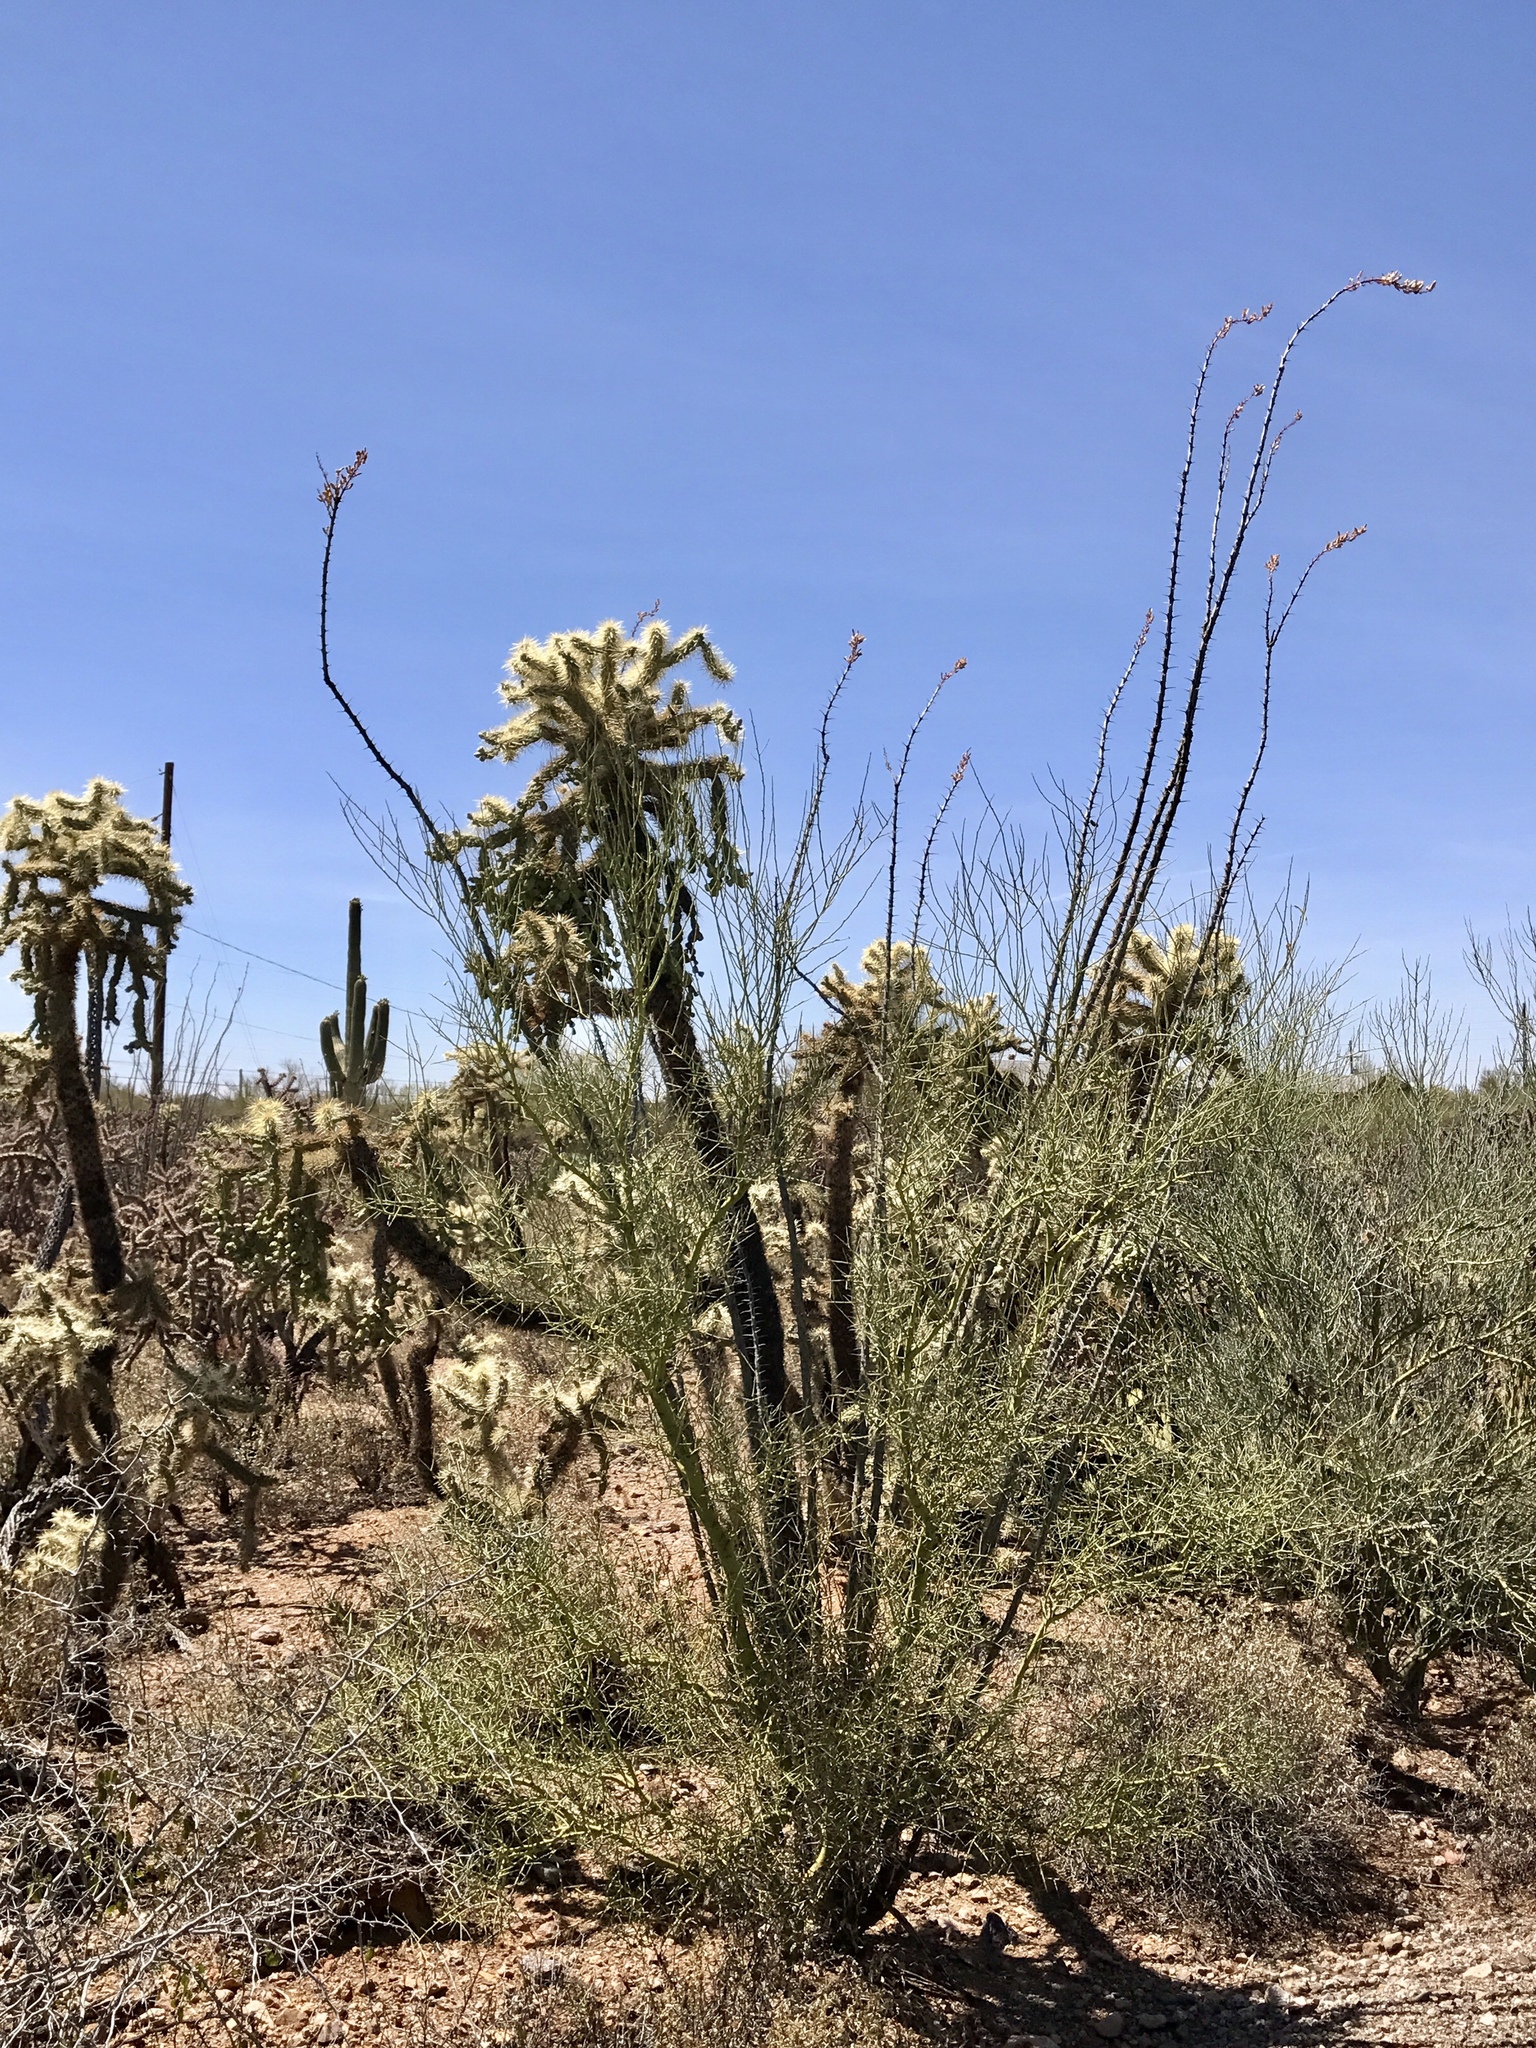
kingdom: Plantae
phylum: Tracheophyta
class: Magnoliopsida
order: Ericales
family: Fouquieriaceae
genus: Fouquieria
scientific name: Fouquieria splendens
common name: Vine-cactus
